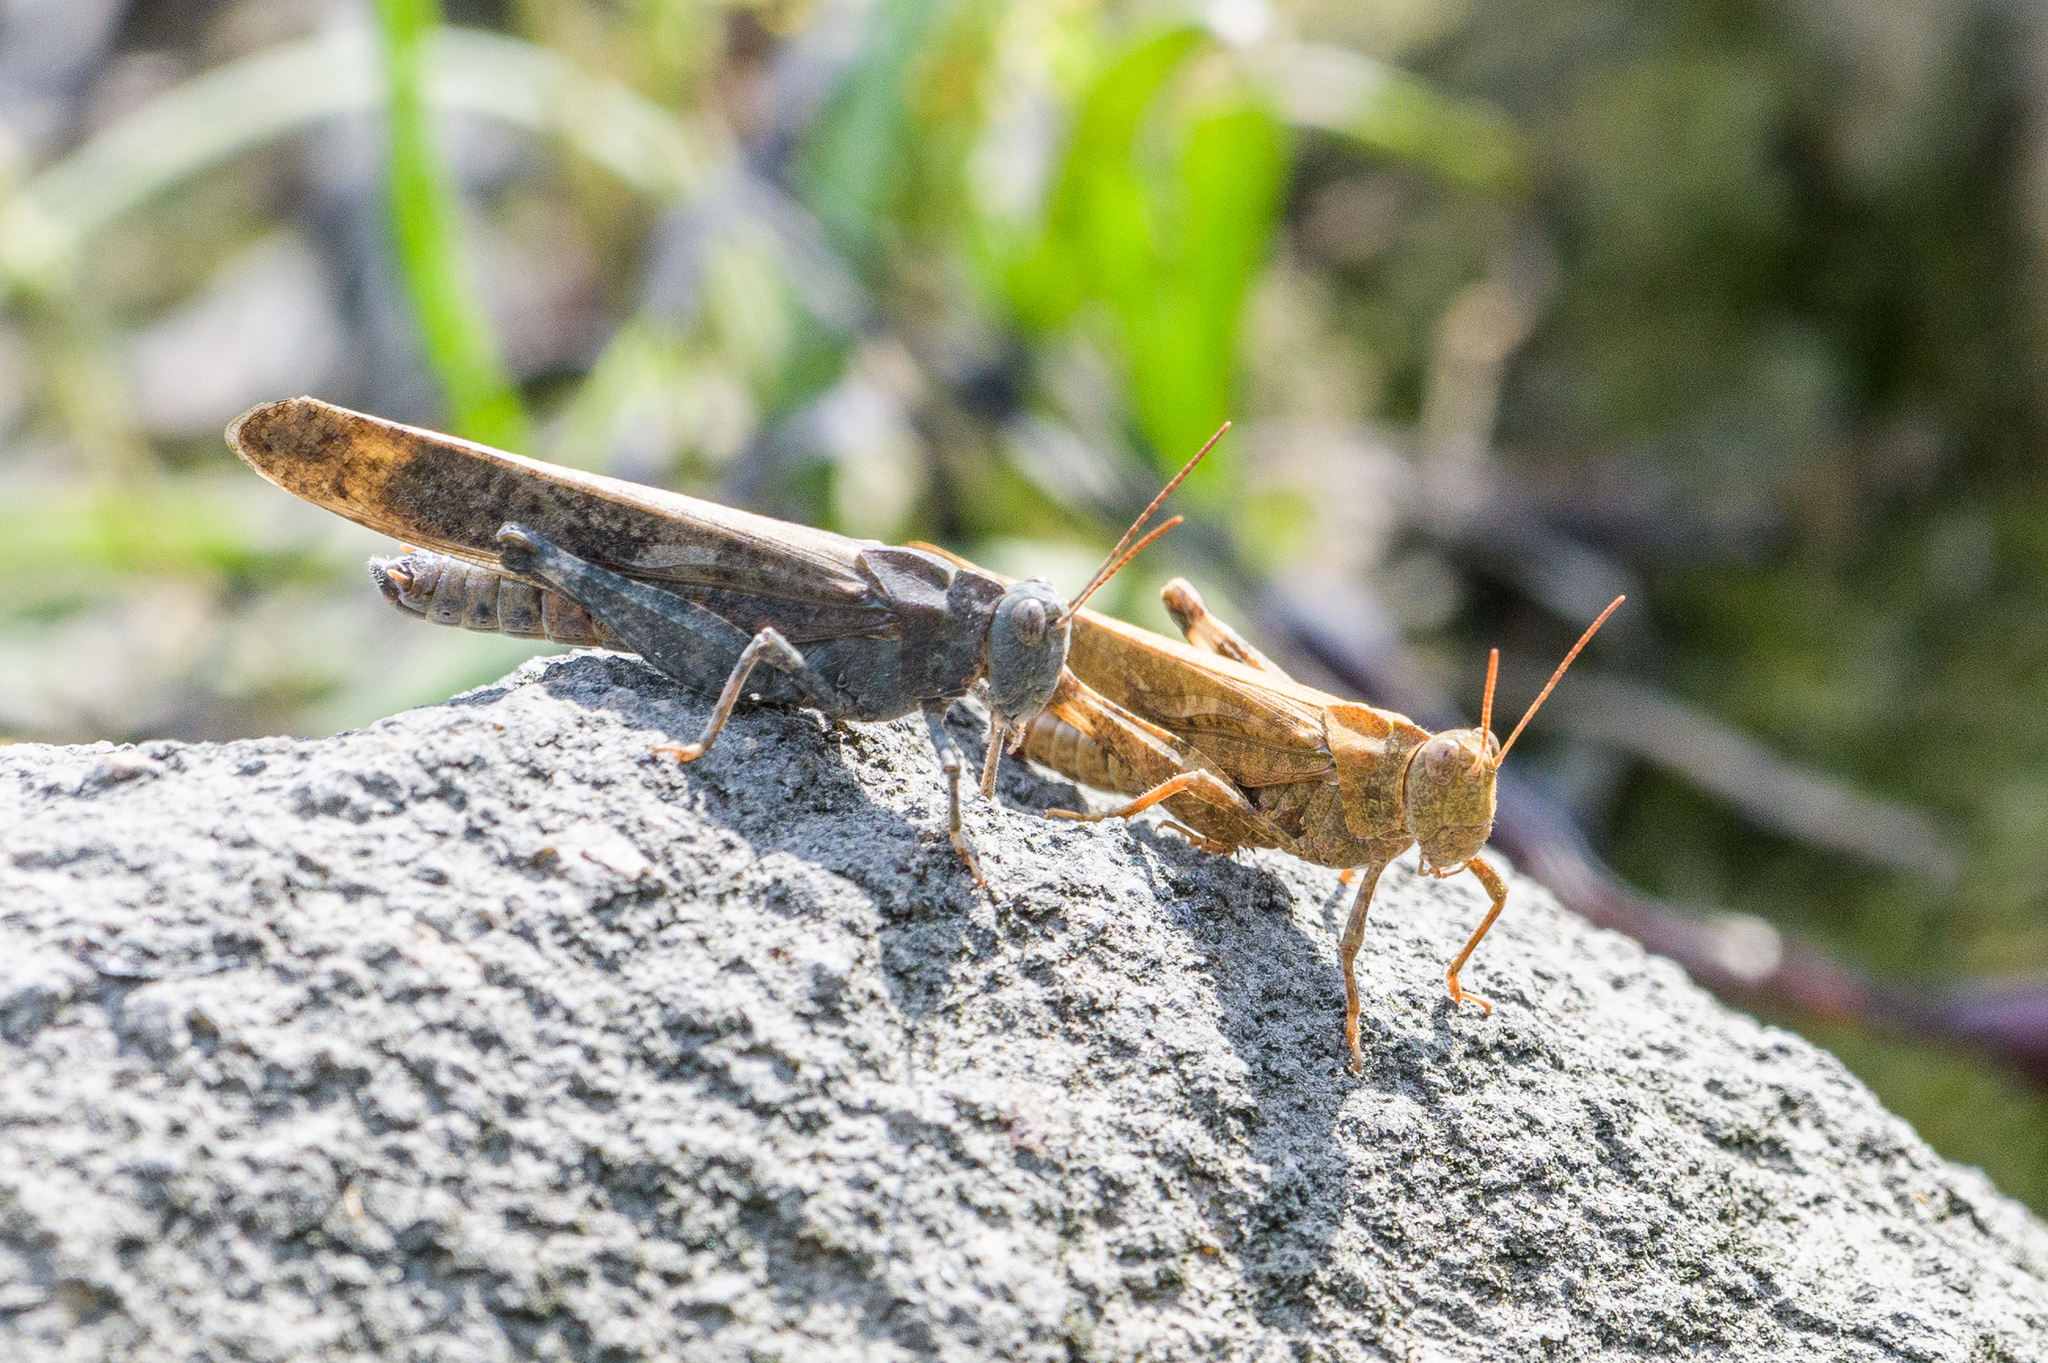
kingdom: Animalia
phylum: Arthropoda
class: Insecta
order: Orthoptera
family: Acrididae
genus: Dissosteira
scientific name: Dissosteira carolina
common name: Carolina grasshopper
